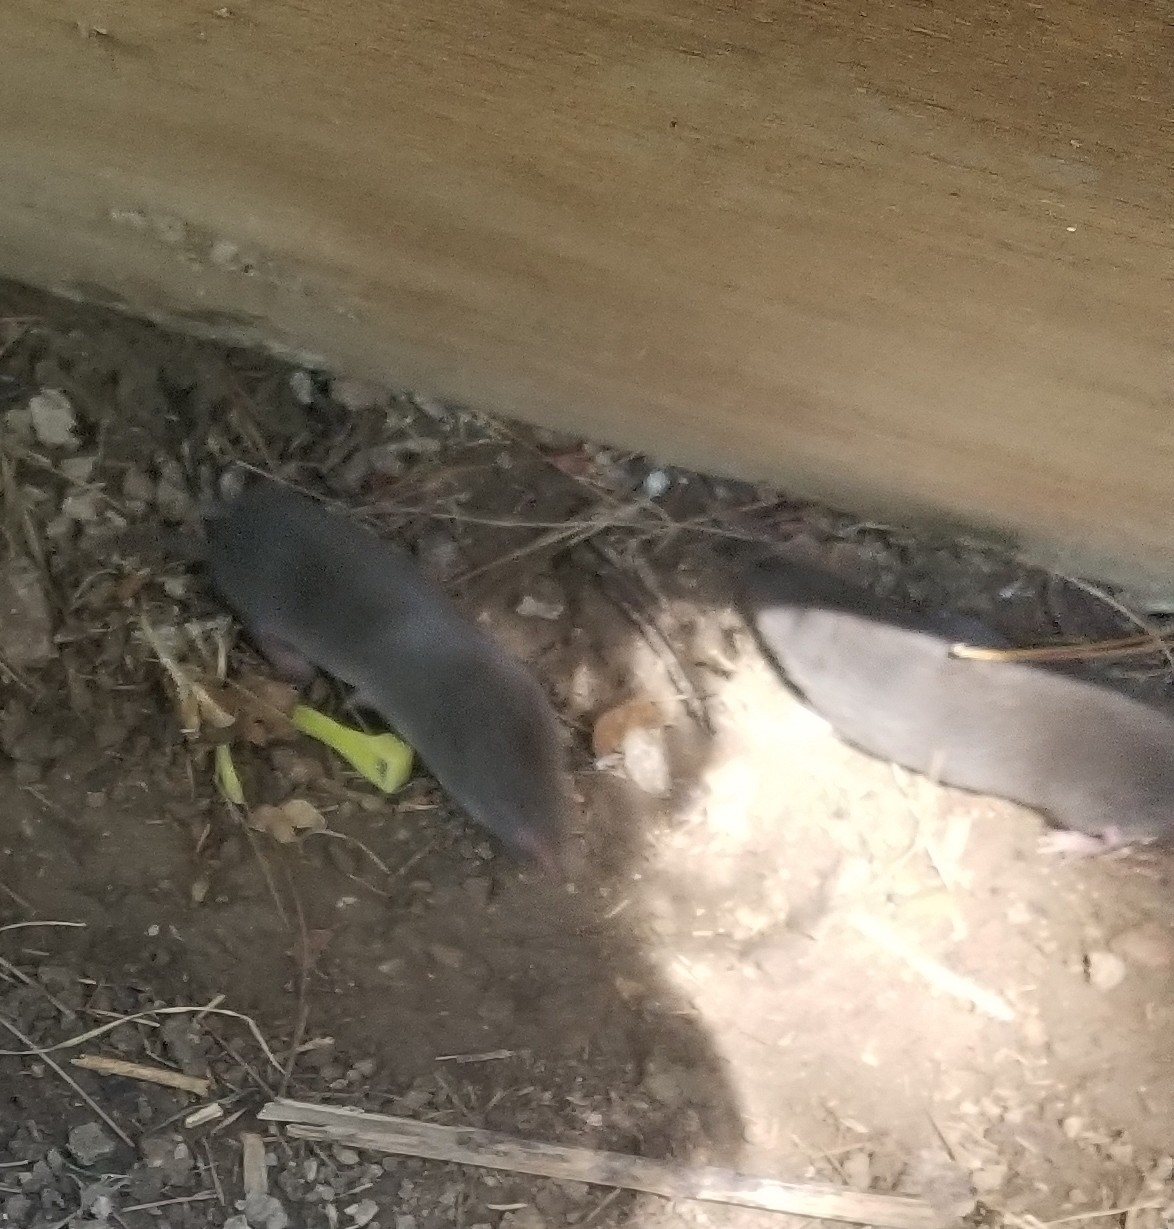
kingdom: Animalia
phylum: Chordata
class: Mammalia
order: Soricomorpha
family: Soricidae
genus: Blarina
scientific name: Blarina brevicauda
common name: Northern short-tailed shrew
